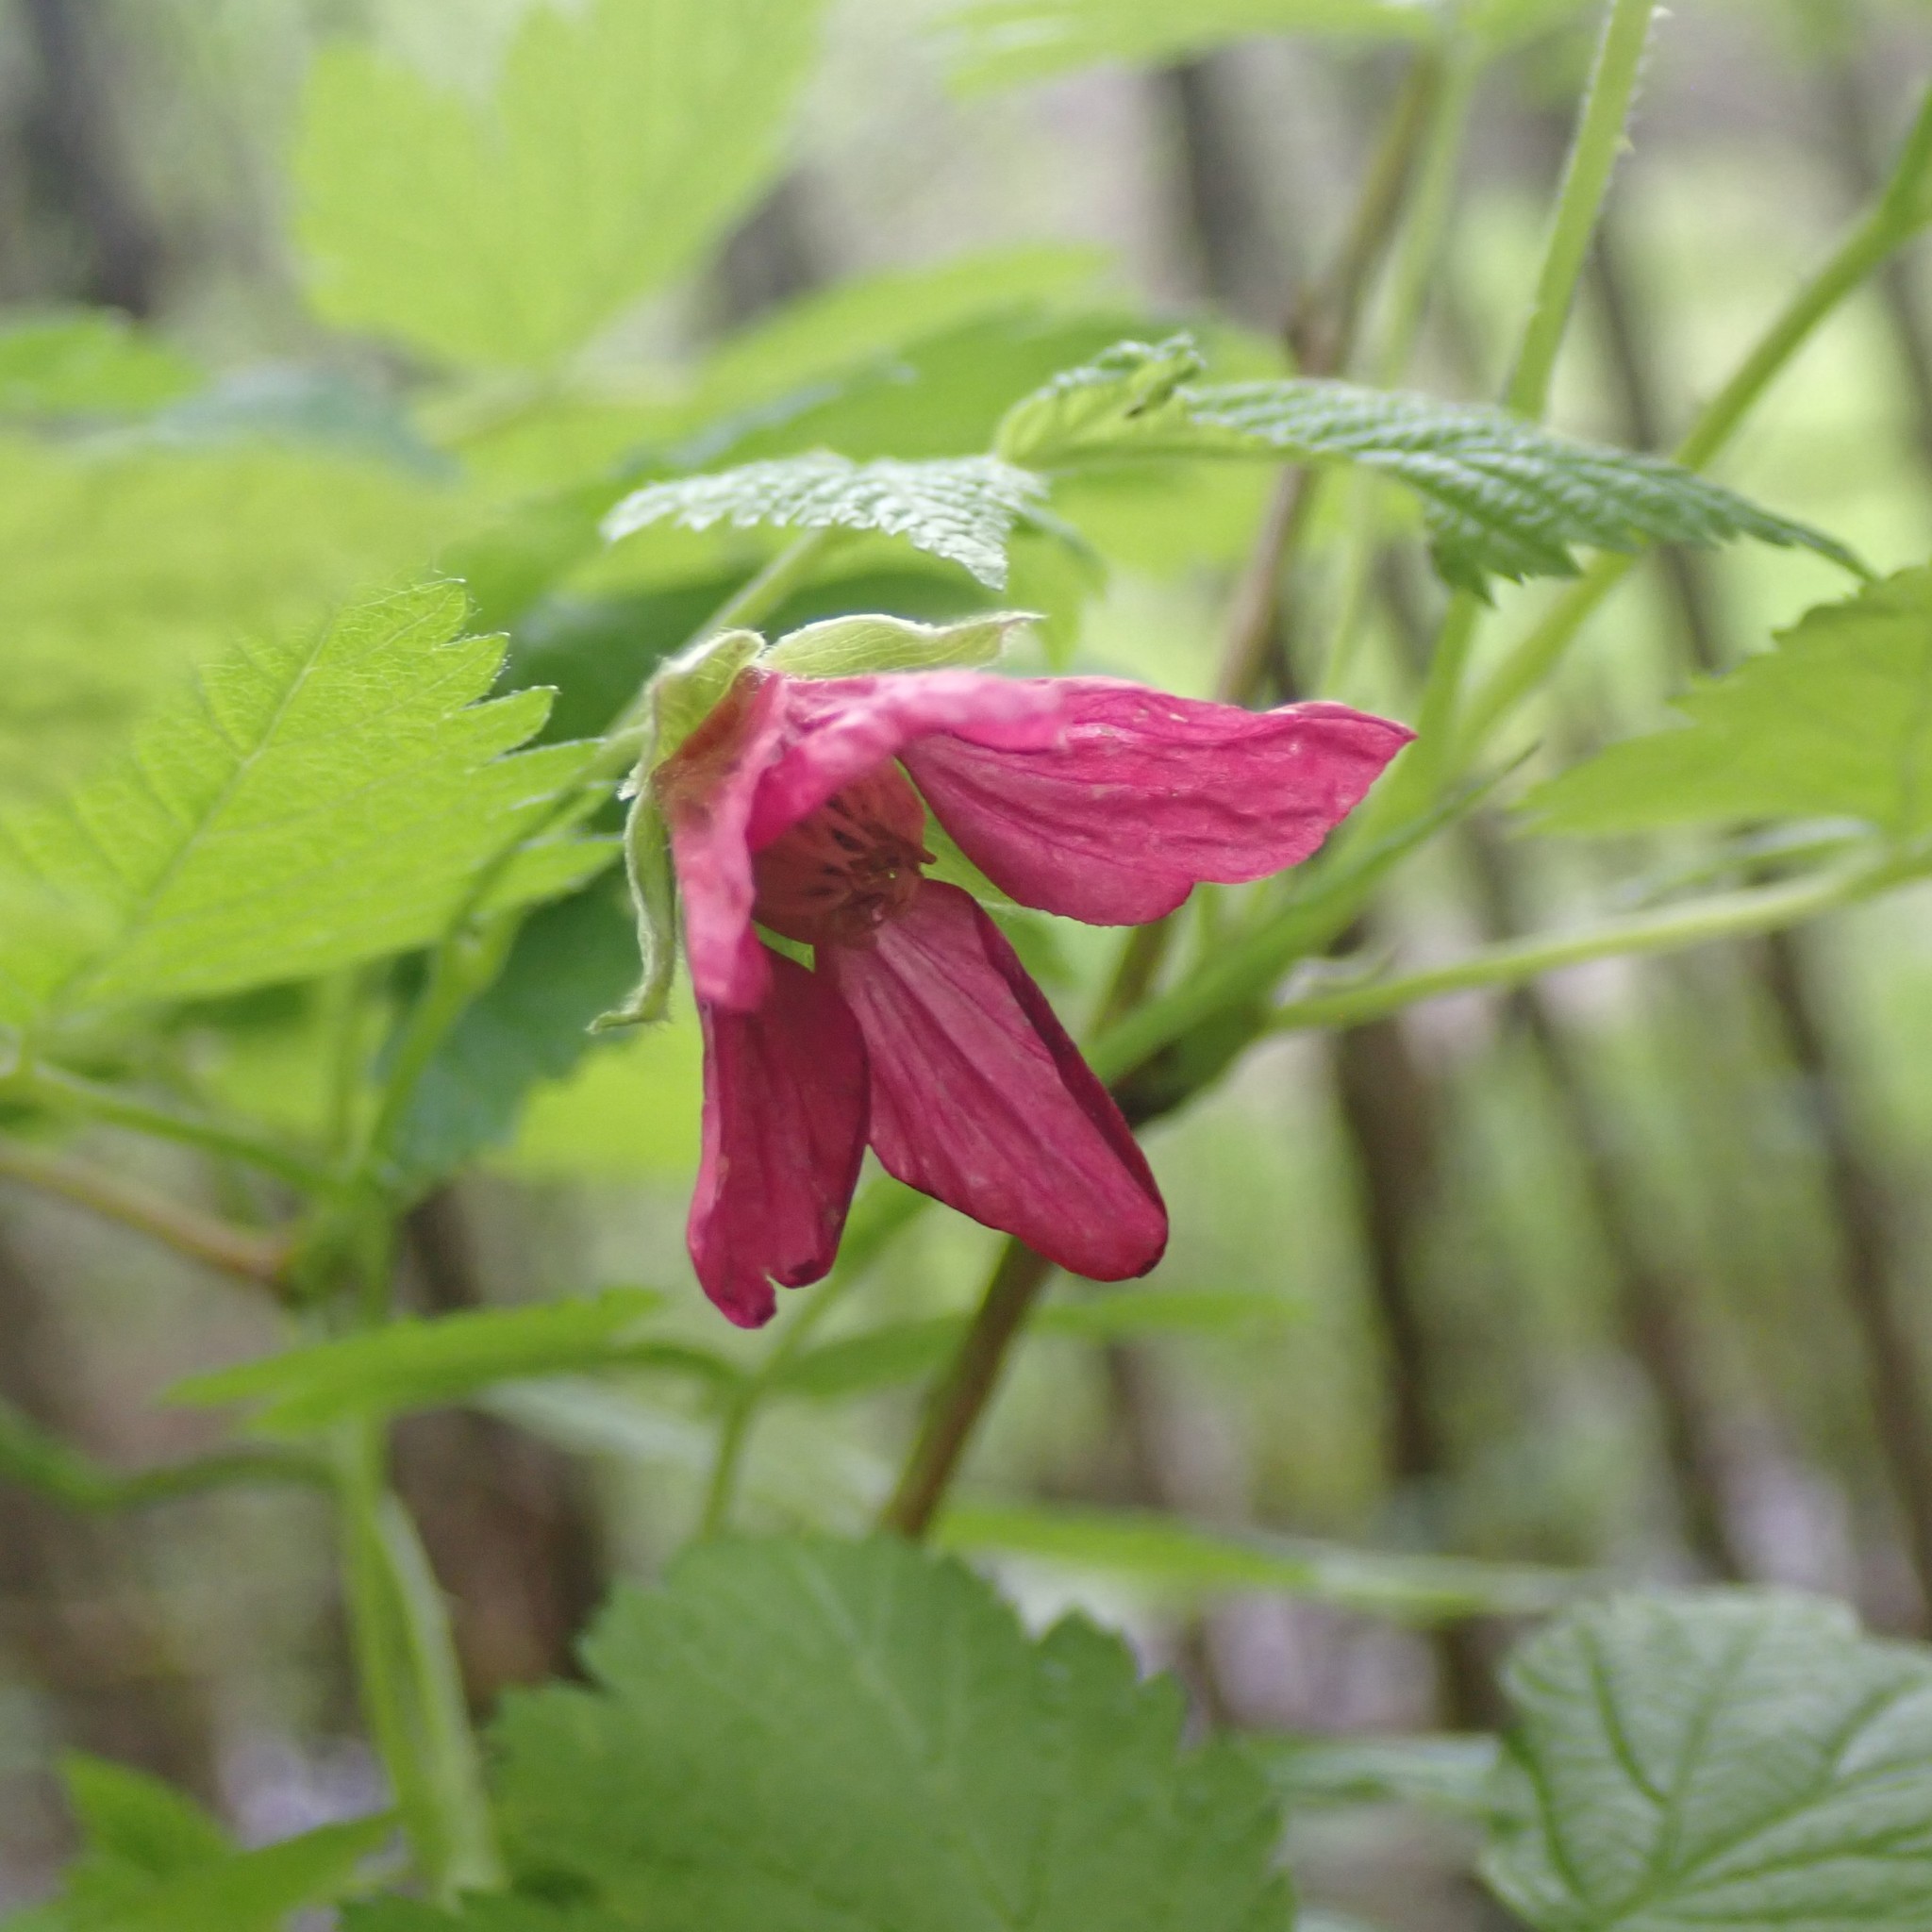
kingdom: Plantae
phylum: Tracheophyta
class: Magnoliopsida
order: Rosales
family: Rosaceae
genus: Rubus
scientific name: Rubus spectabilis
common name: Salmonberry
